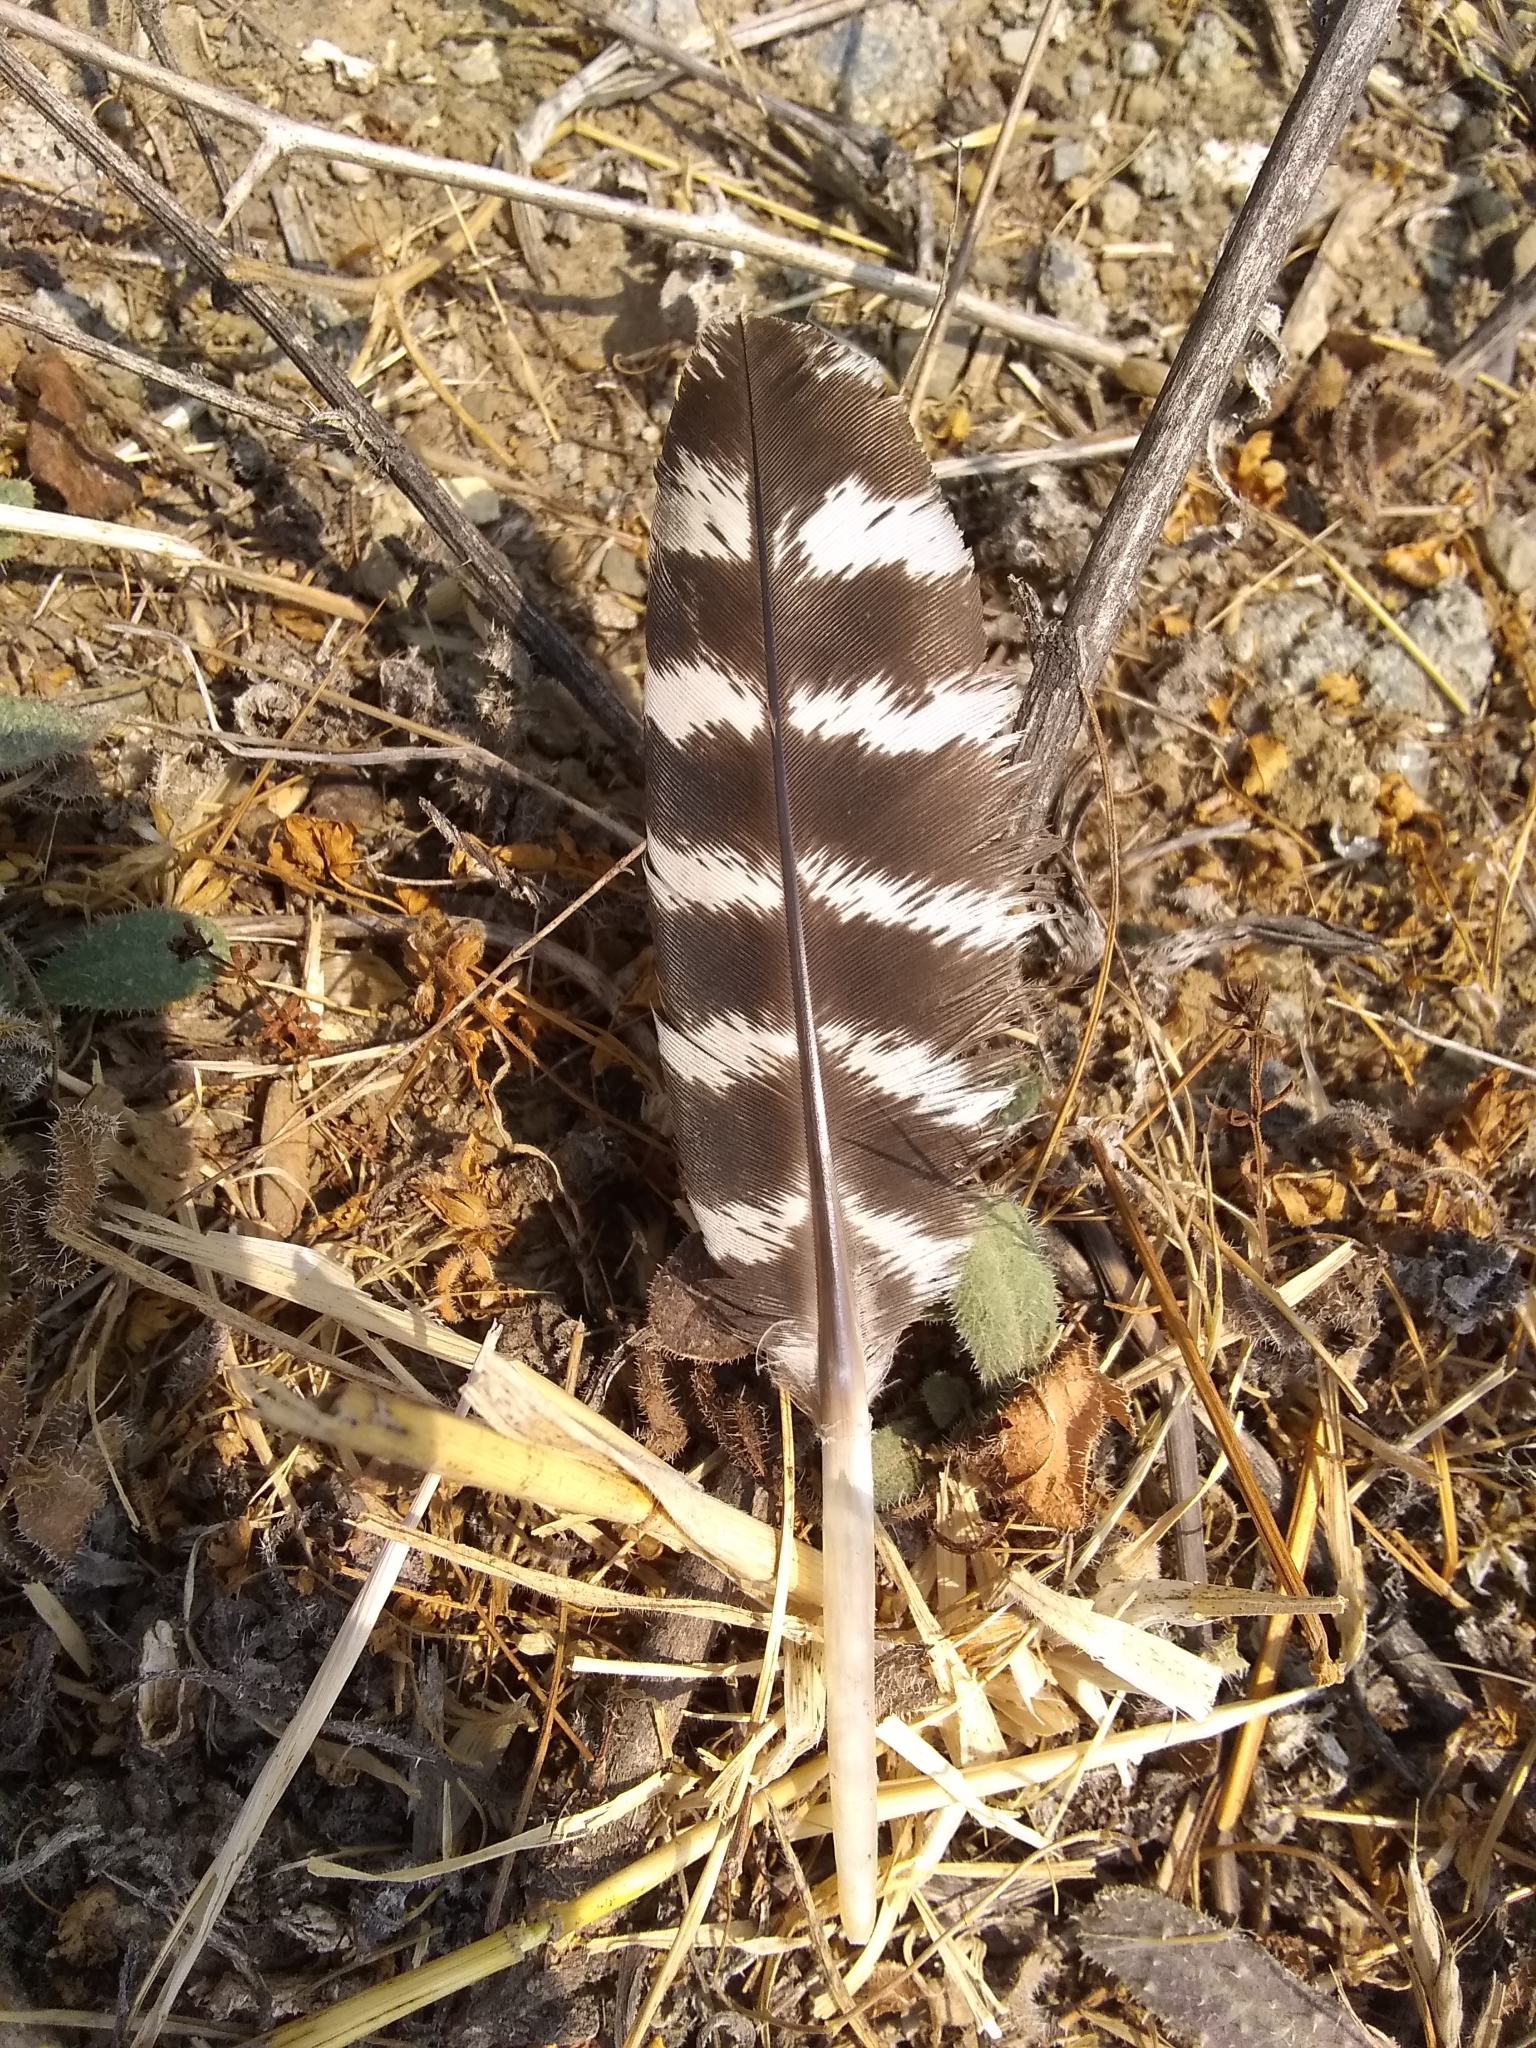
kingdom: Animalia
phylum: Chordata
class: Aves
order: Galliformes
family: Phasianidae
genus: Meleagris
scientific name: Meleagris gallopavo
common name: Wild turkey
